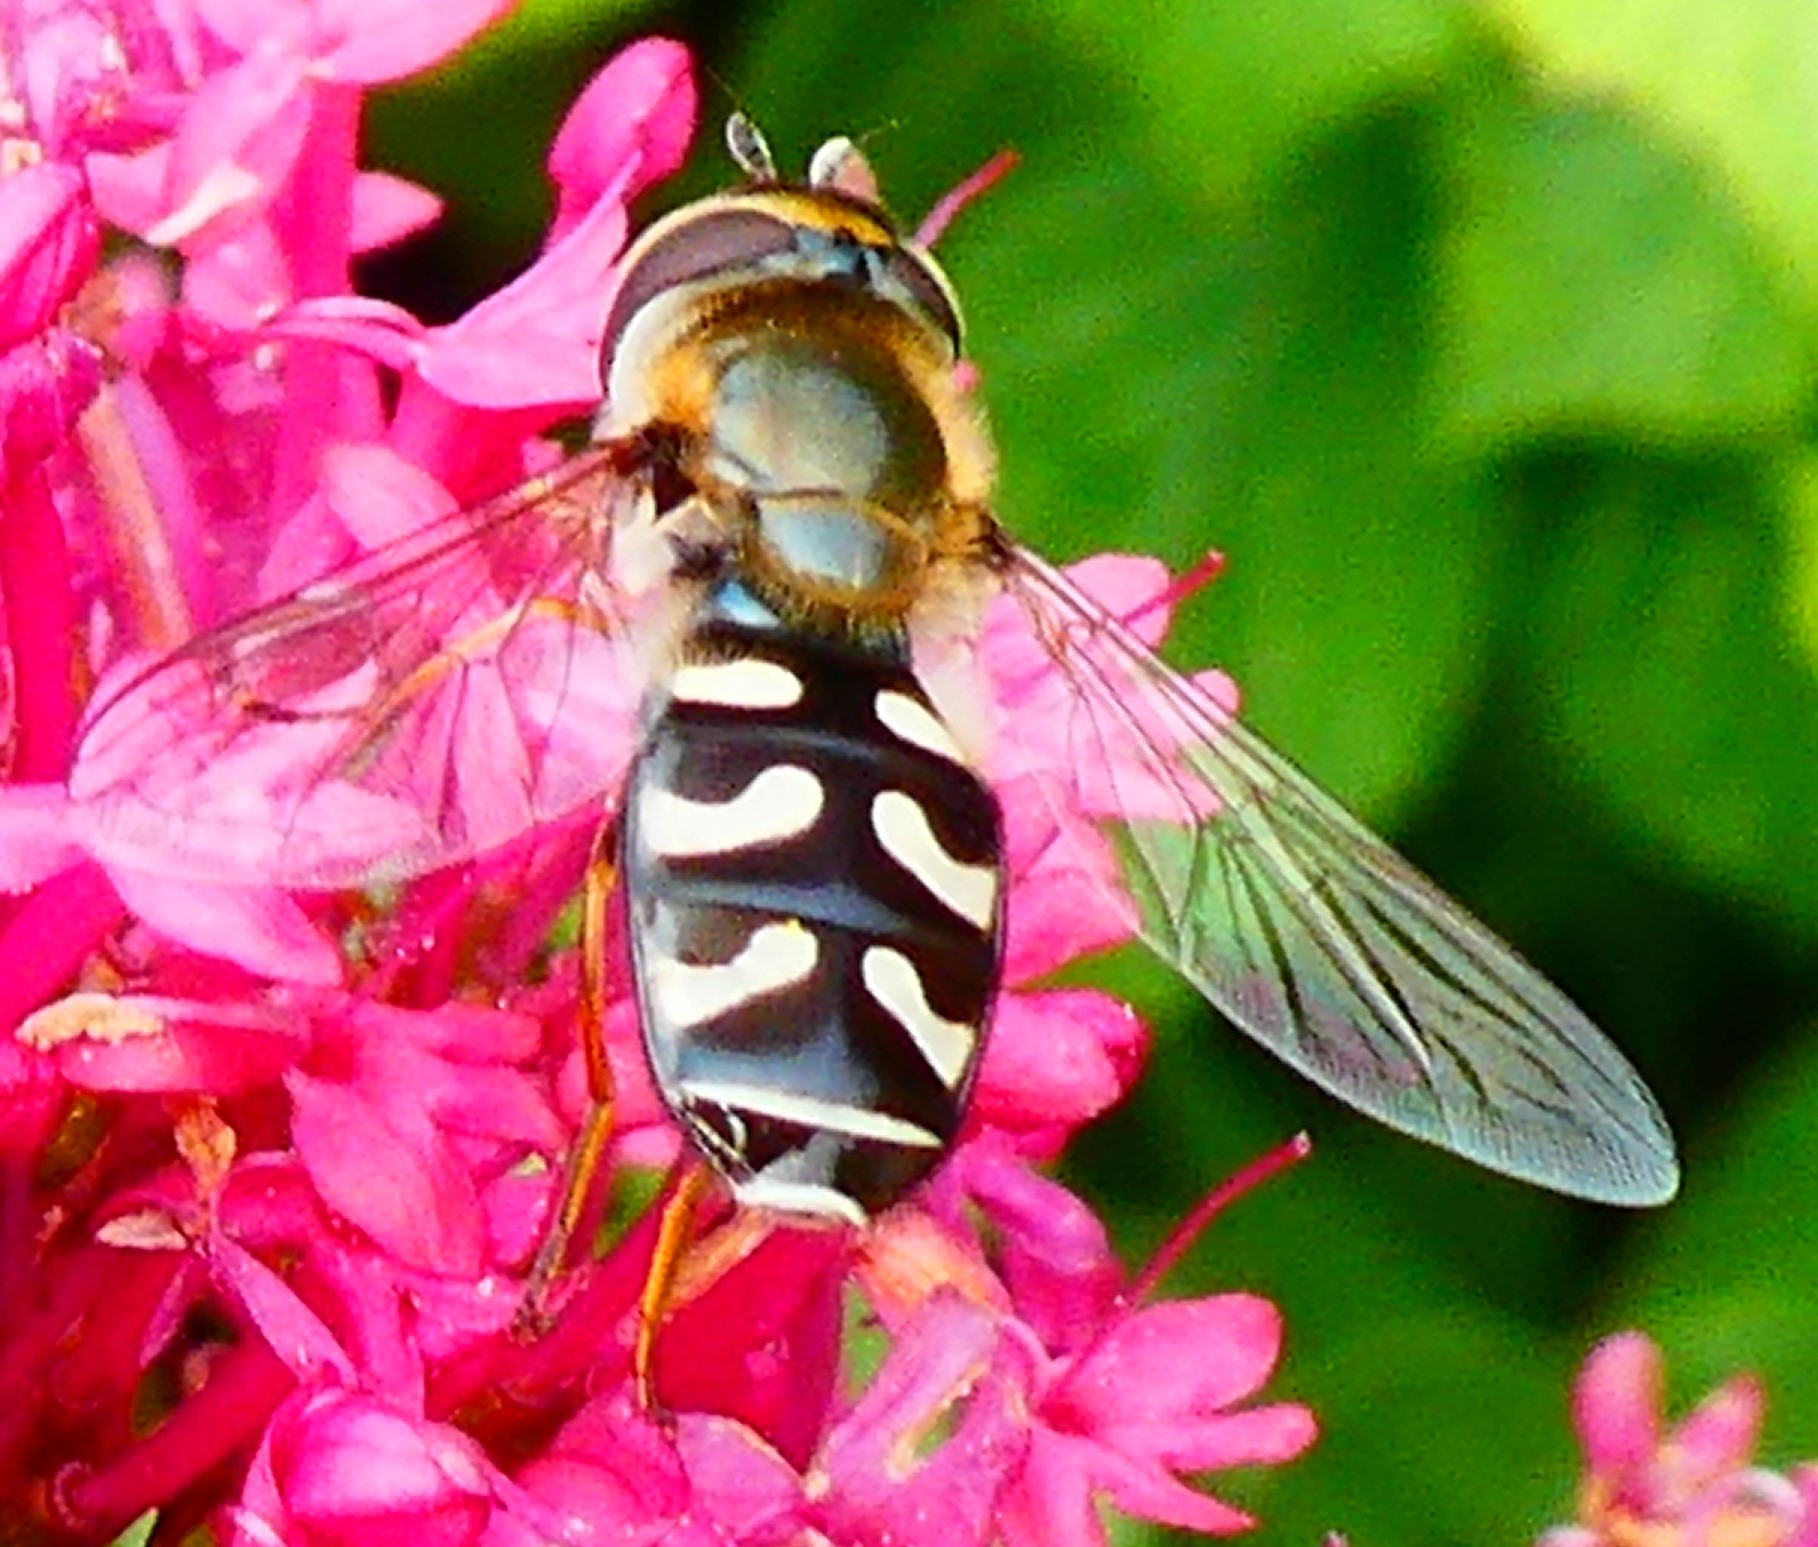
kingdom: Animalia
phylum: Arthropoda
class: Insecta
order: Diptera
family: Syrphidae
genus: Scaeva
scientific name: Scaeva pyrastri
